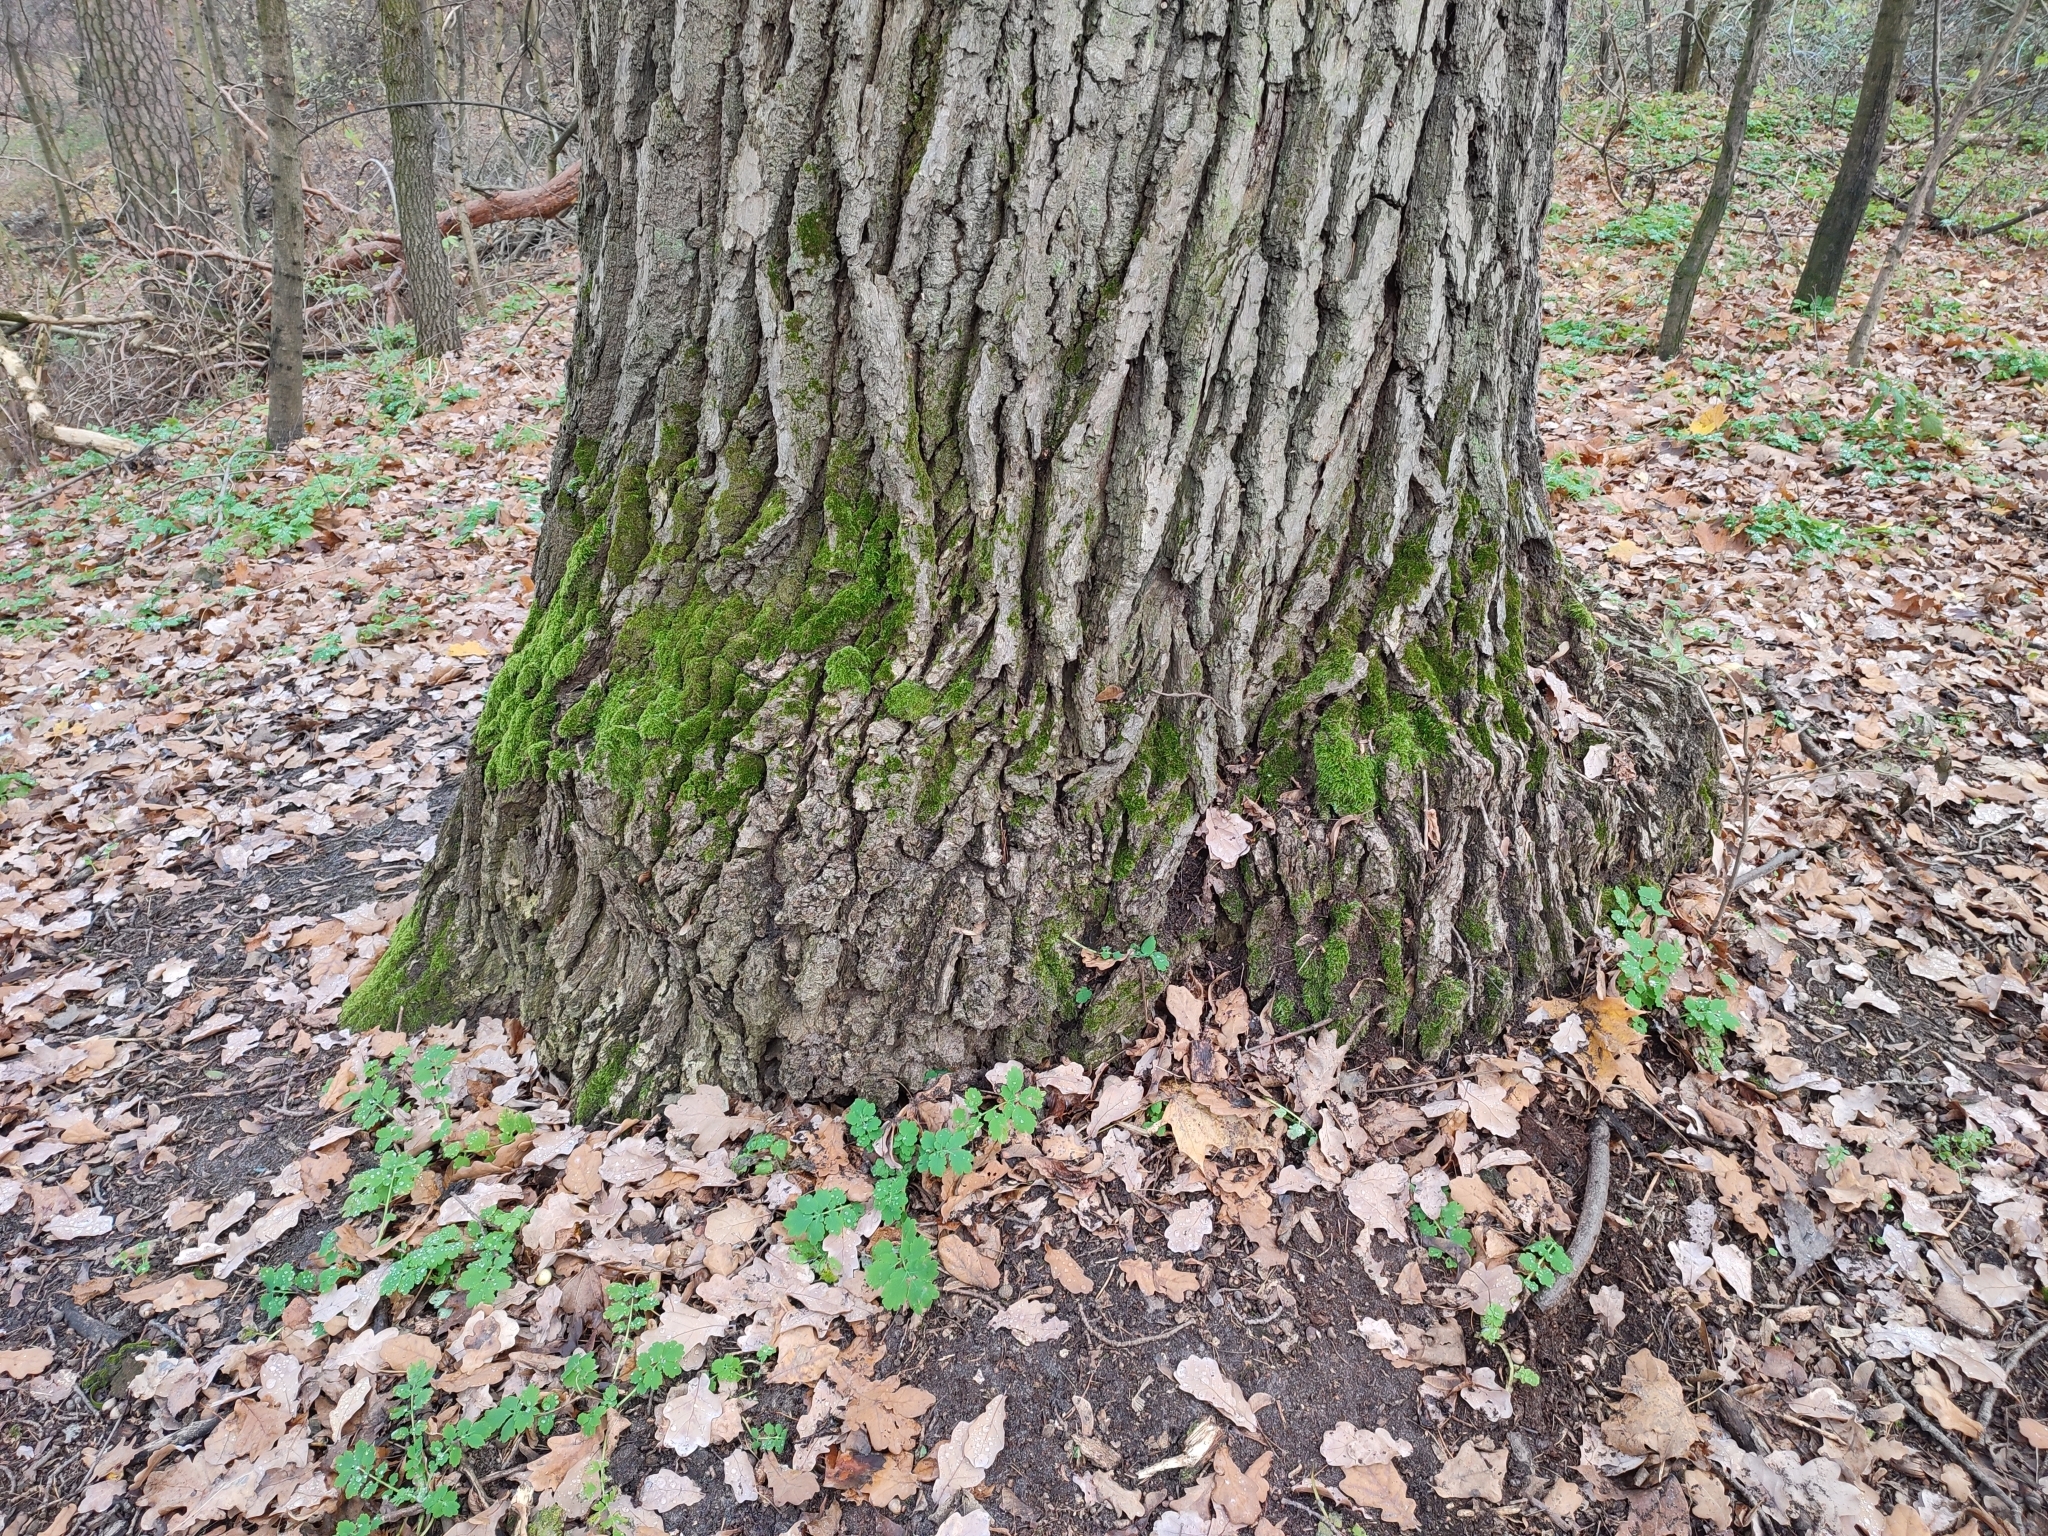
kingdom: Plantae
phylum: Tracheophyta
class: Magnoliopsida
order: Fagales
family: Fagaceae
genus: Quercus
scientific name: Quercus robur
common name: Pedunculate oak
